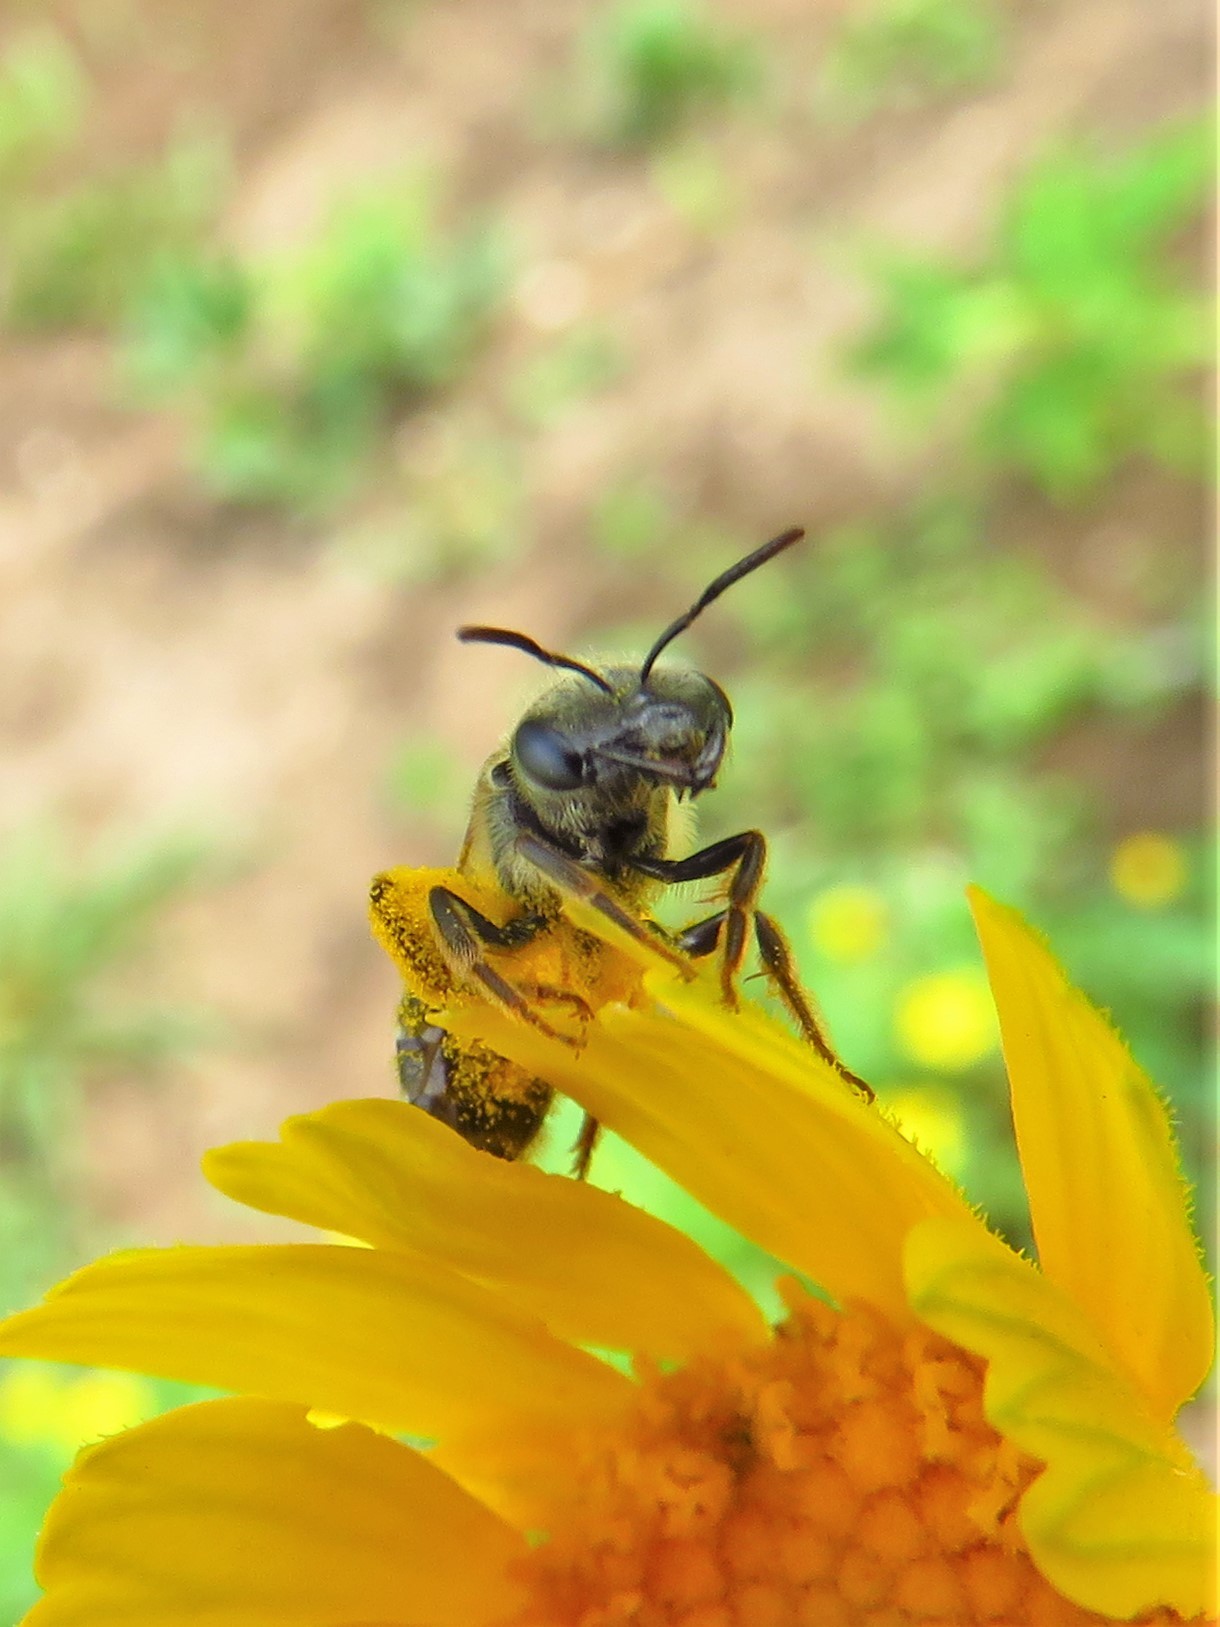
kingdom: Animalia
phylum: Arthropoda
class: Insecta
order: Hymenoptera
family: Halictidae
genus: Halictus
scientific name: Halictus ligatus
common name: Ligated furrow bee
